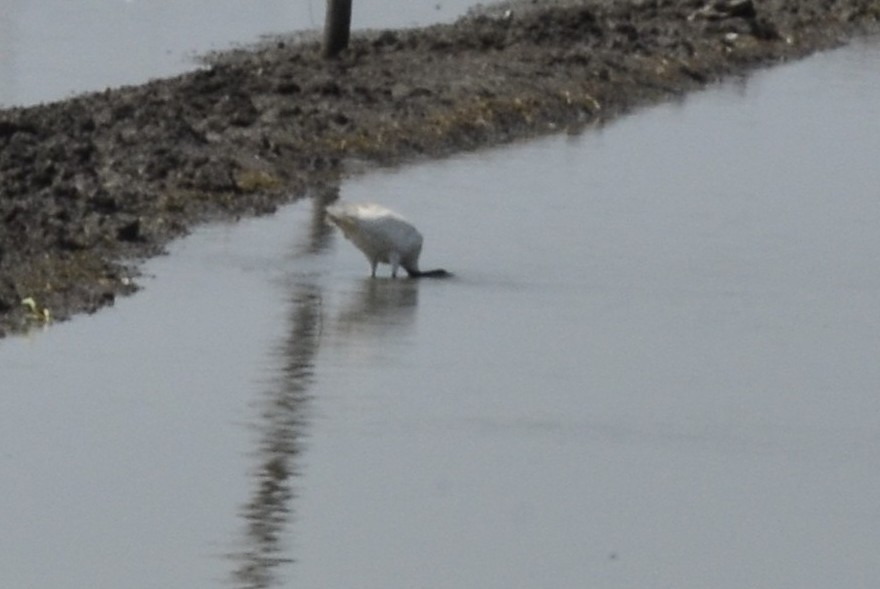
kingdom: Animalia
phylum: Chordata
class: Aves
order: Pelecaniformes
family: Threskiornithidae
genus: Threskiornis
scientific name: Threskiornis melanocephalus
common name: Black-headed ibis
